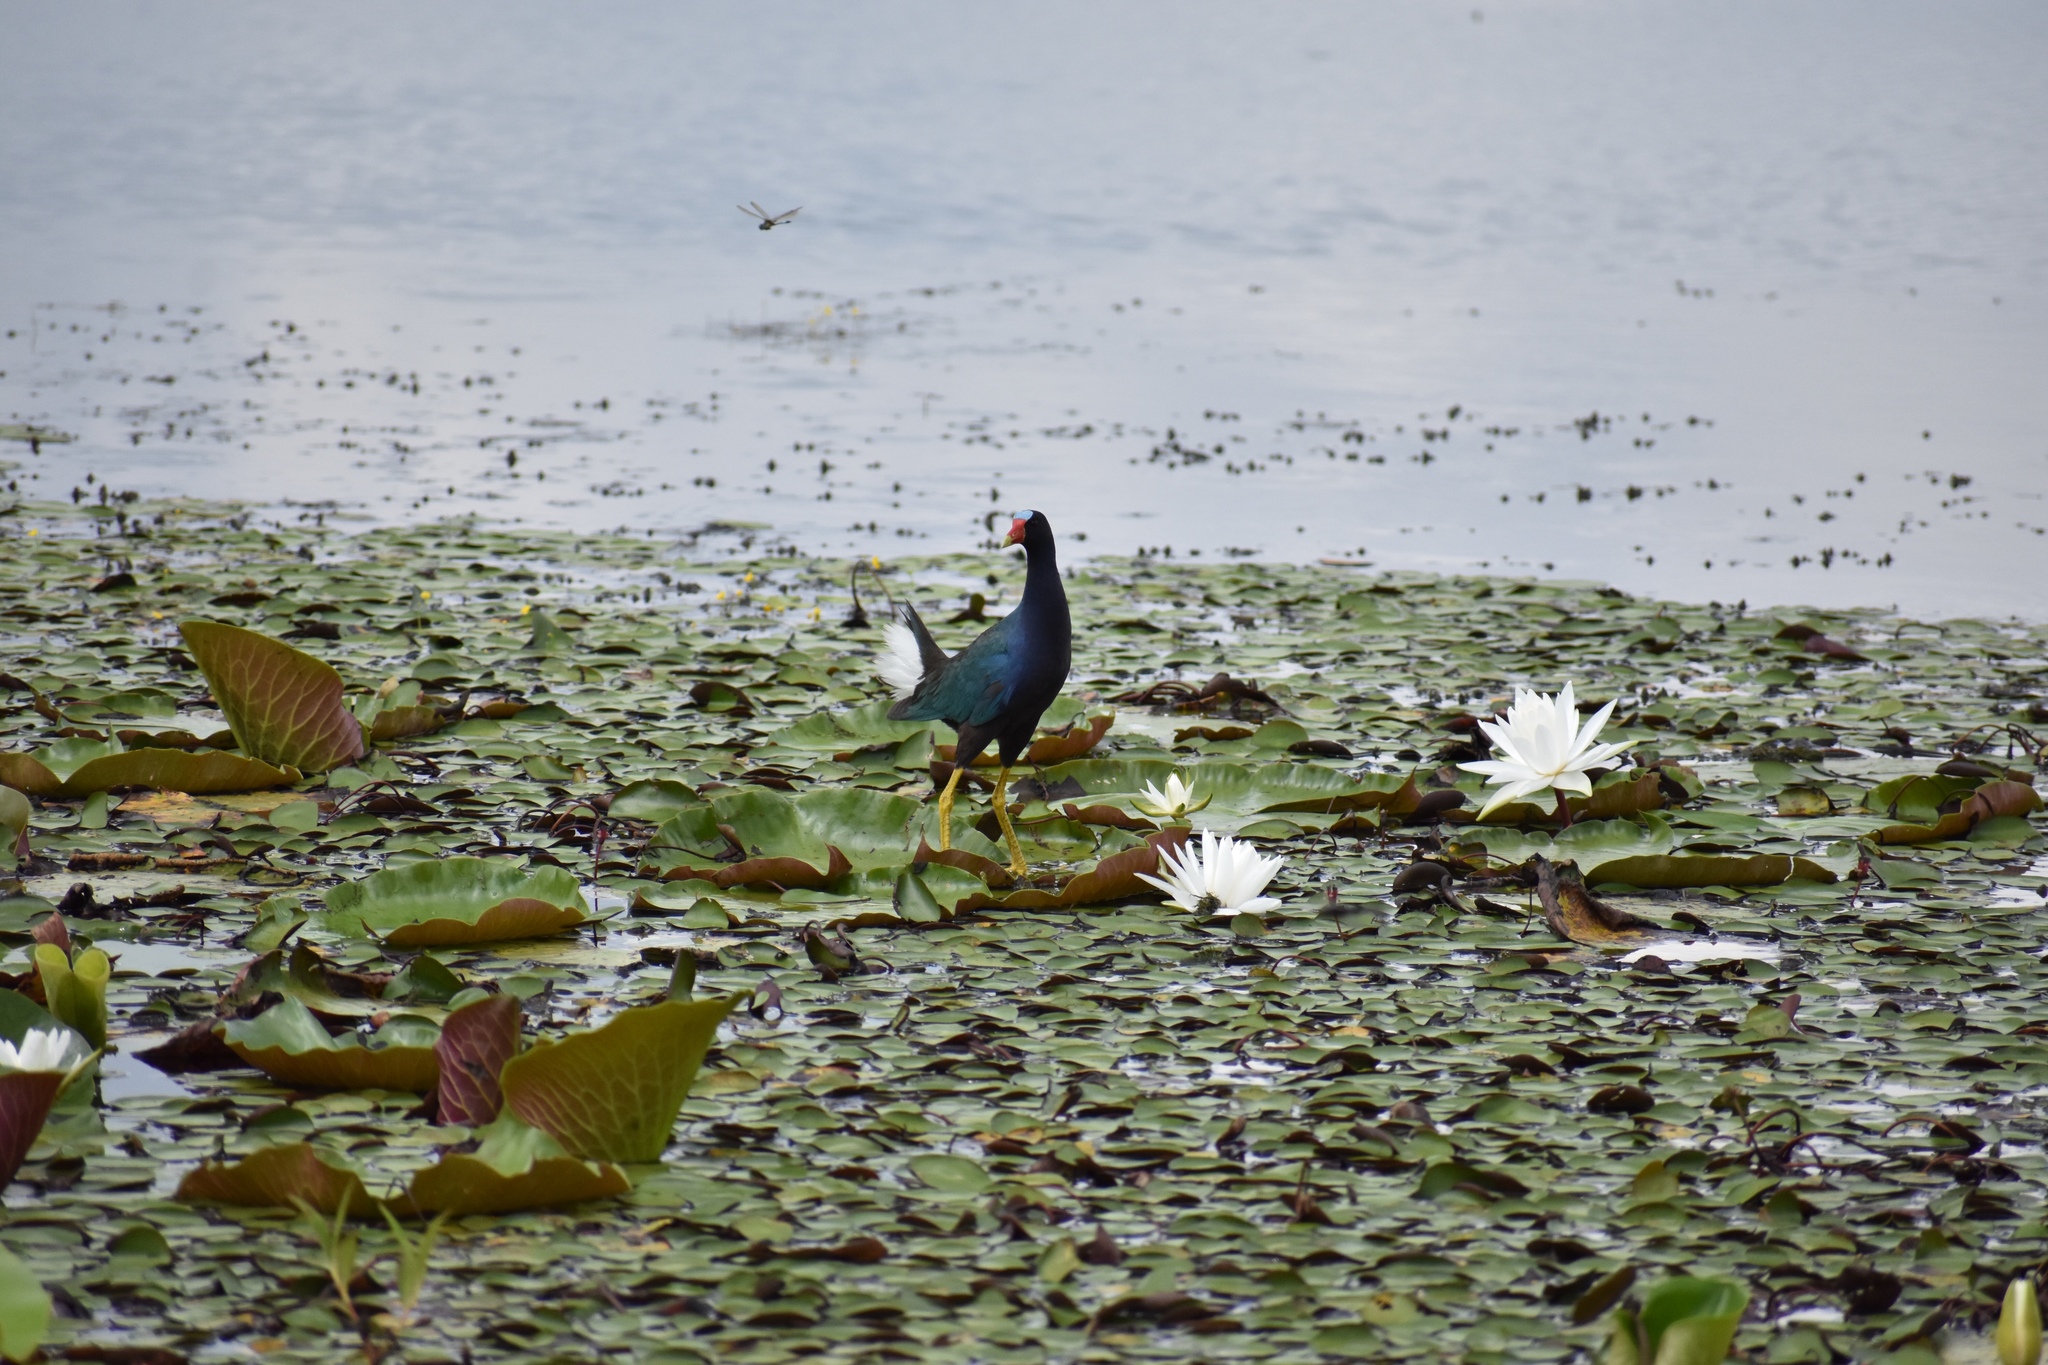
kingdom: Animalia
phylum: Chordata
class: Aves
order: Gruiformes
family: Rallidae
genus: Porphyrio
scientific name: Porphyrio martinica
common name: Purple gallinule
